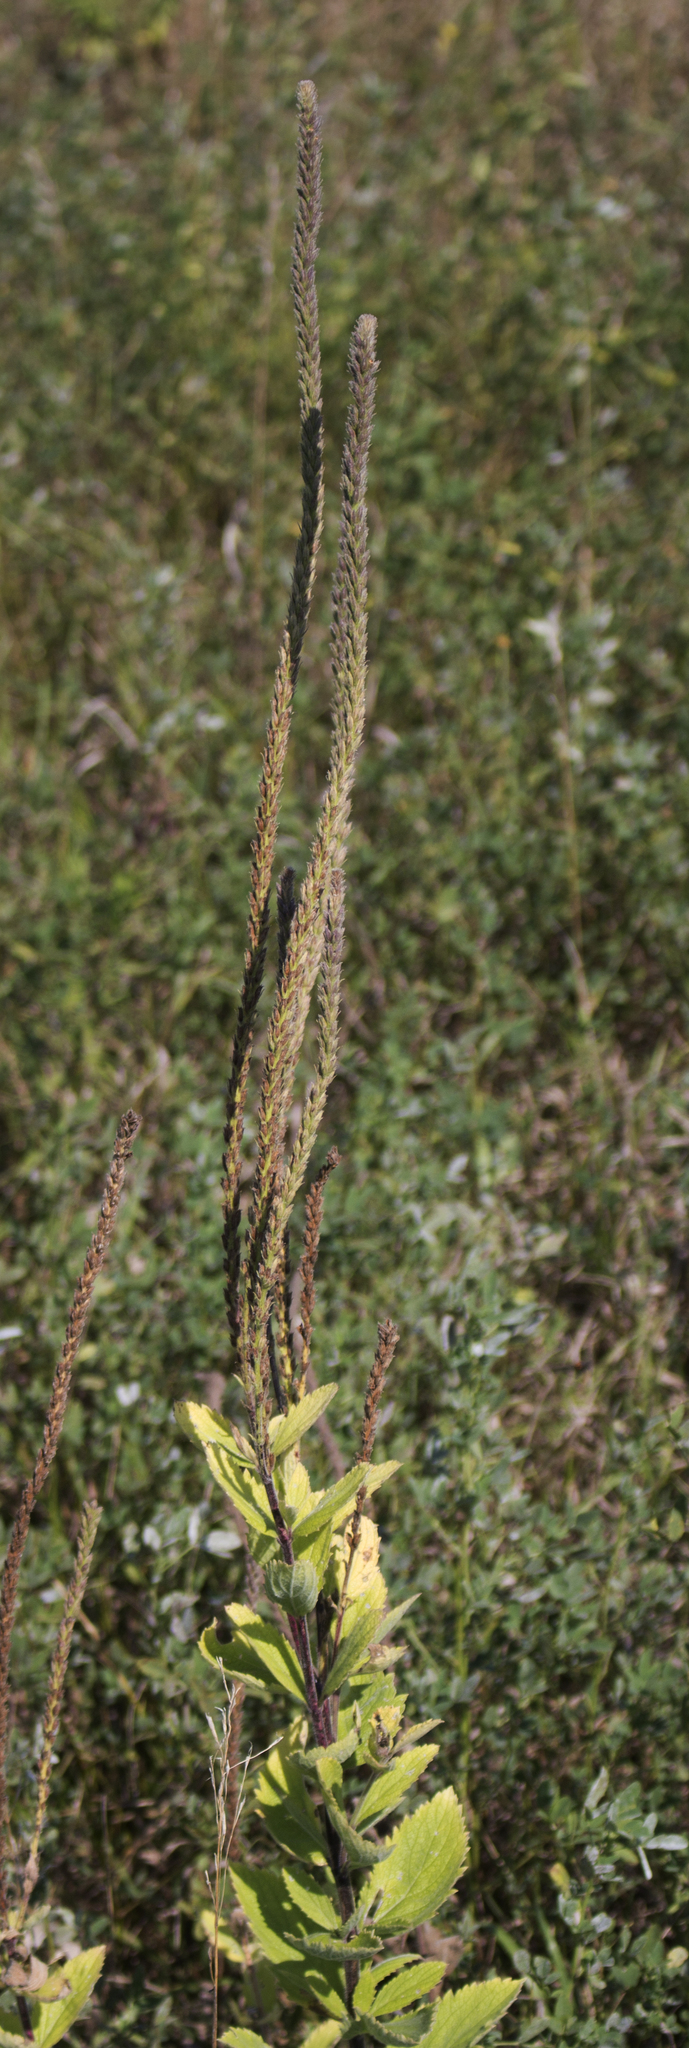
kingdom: Plantae
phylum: Tracheophyta
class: Magnoliopsida
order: Lamiales
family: Verbenaceae
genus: Verbena
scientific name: Verbena stricta
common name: Hoary vervain
